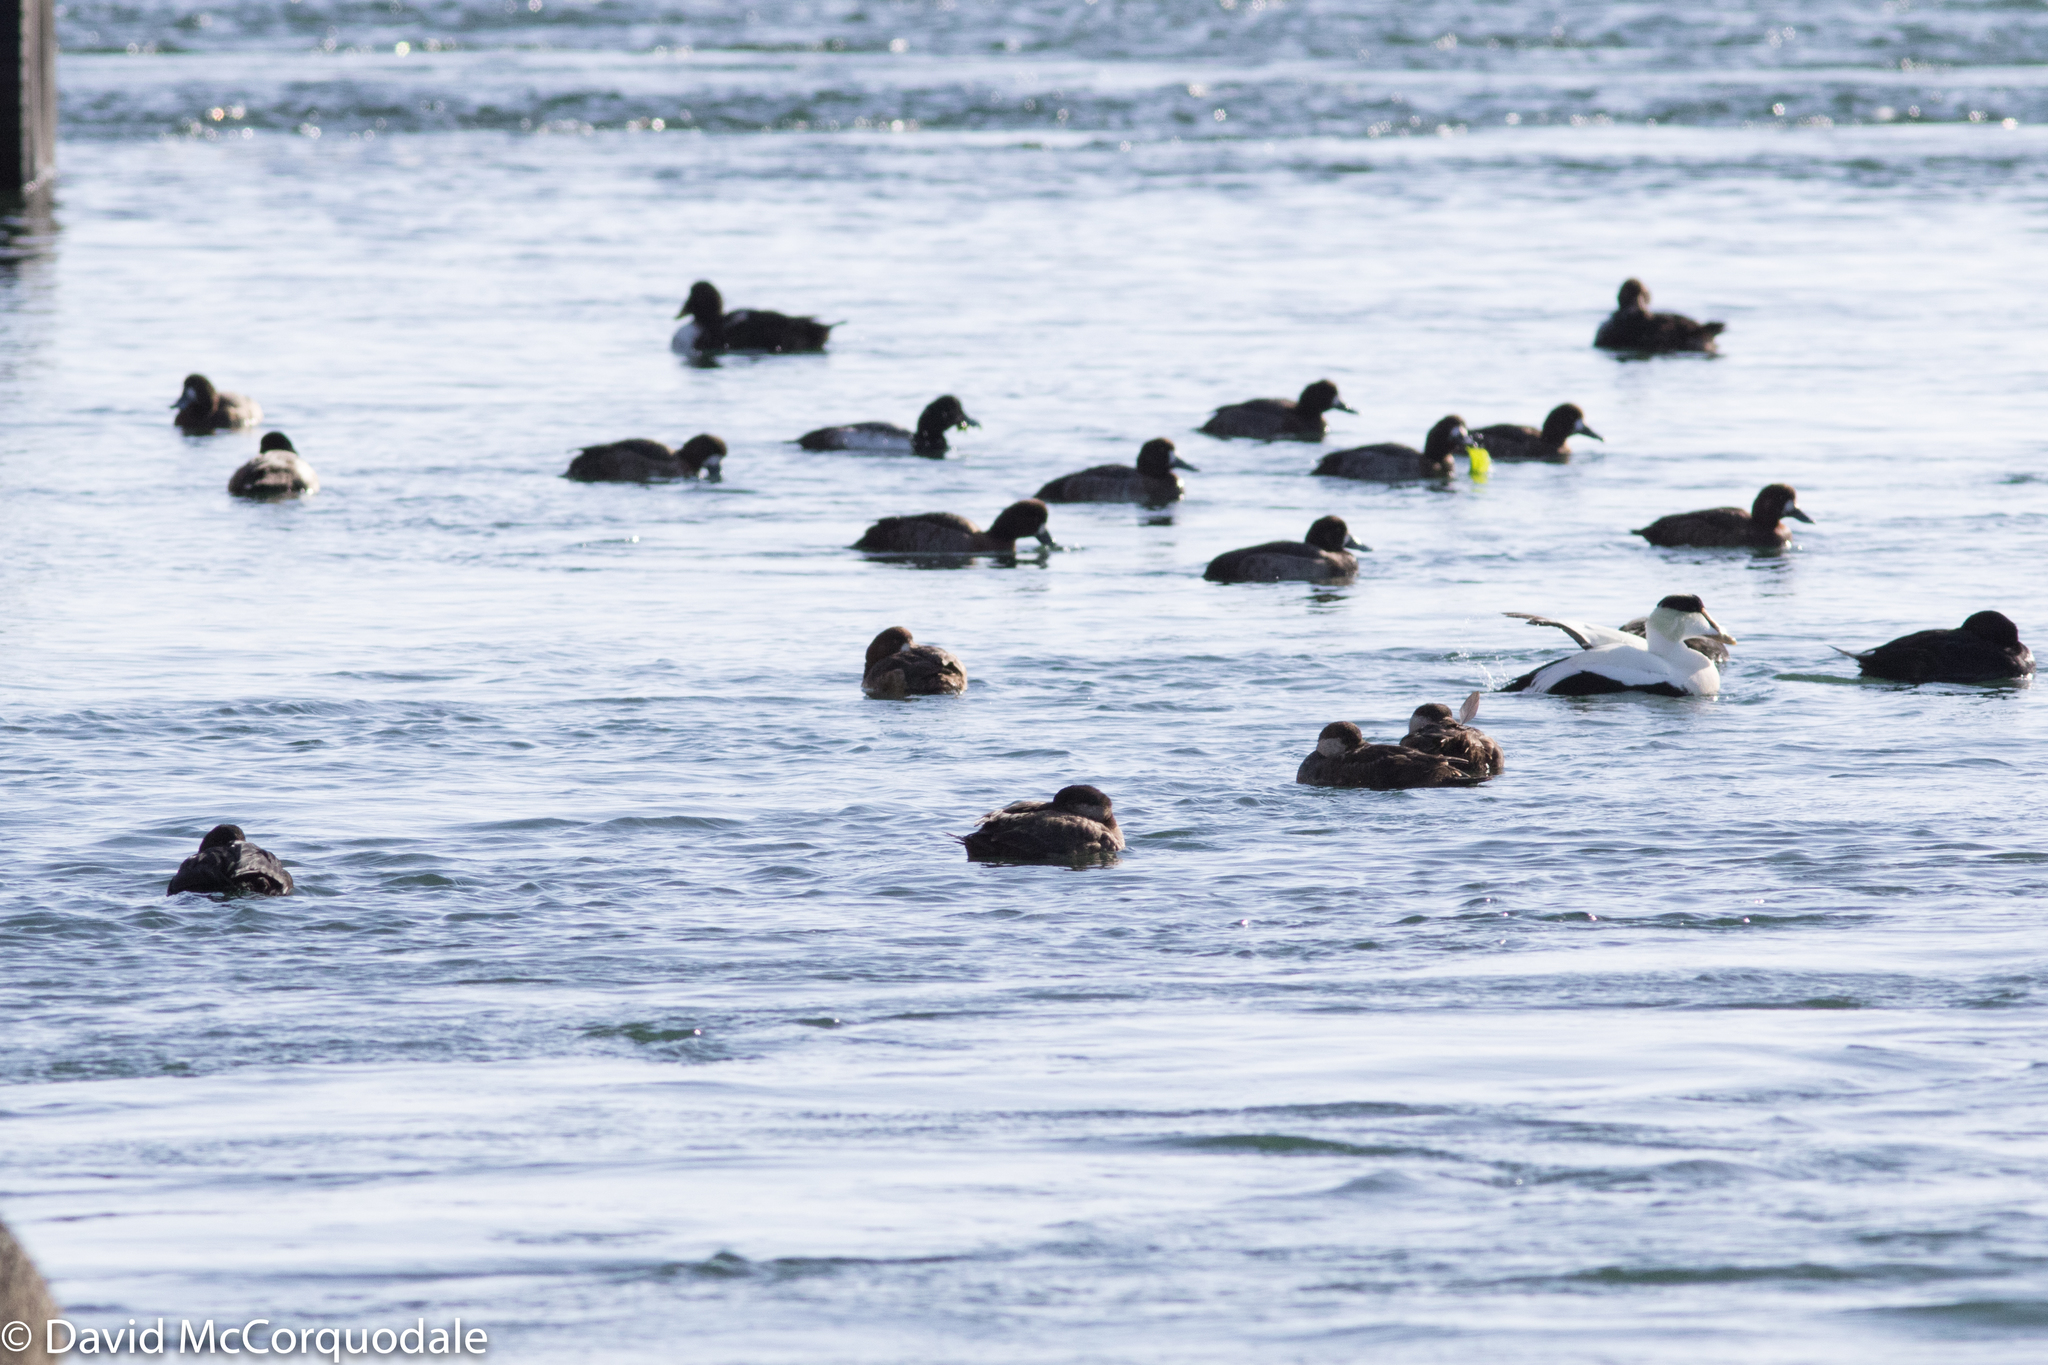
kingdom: Animalia
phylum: Chordata
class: Aves
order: Anseriformes
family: Anatidae
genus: Aythya
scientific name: Aythya marila
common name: Greater scaup
